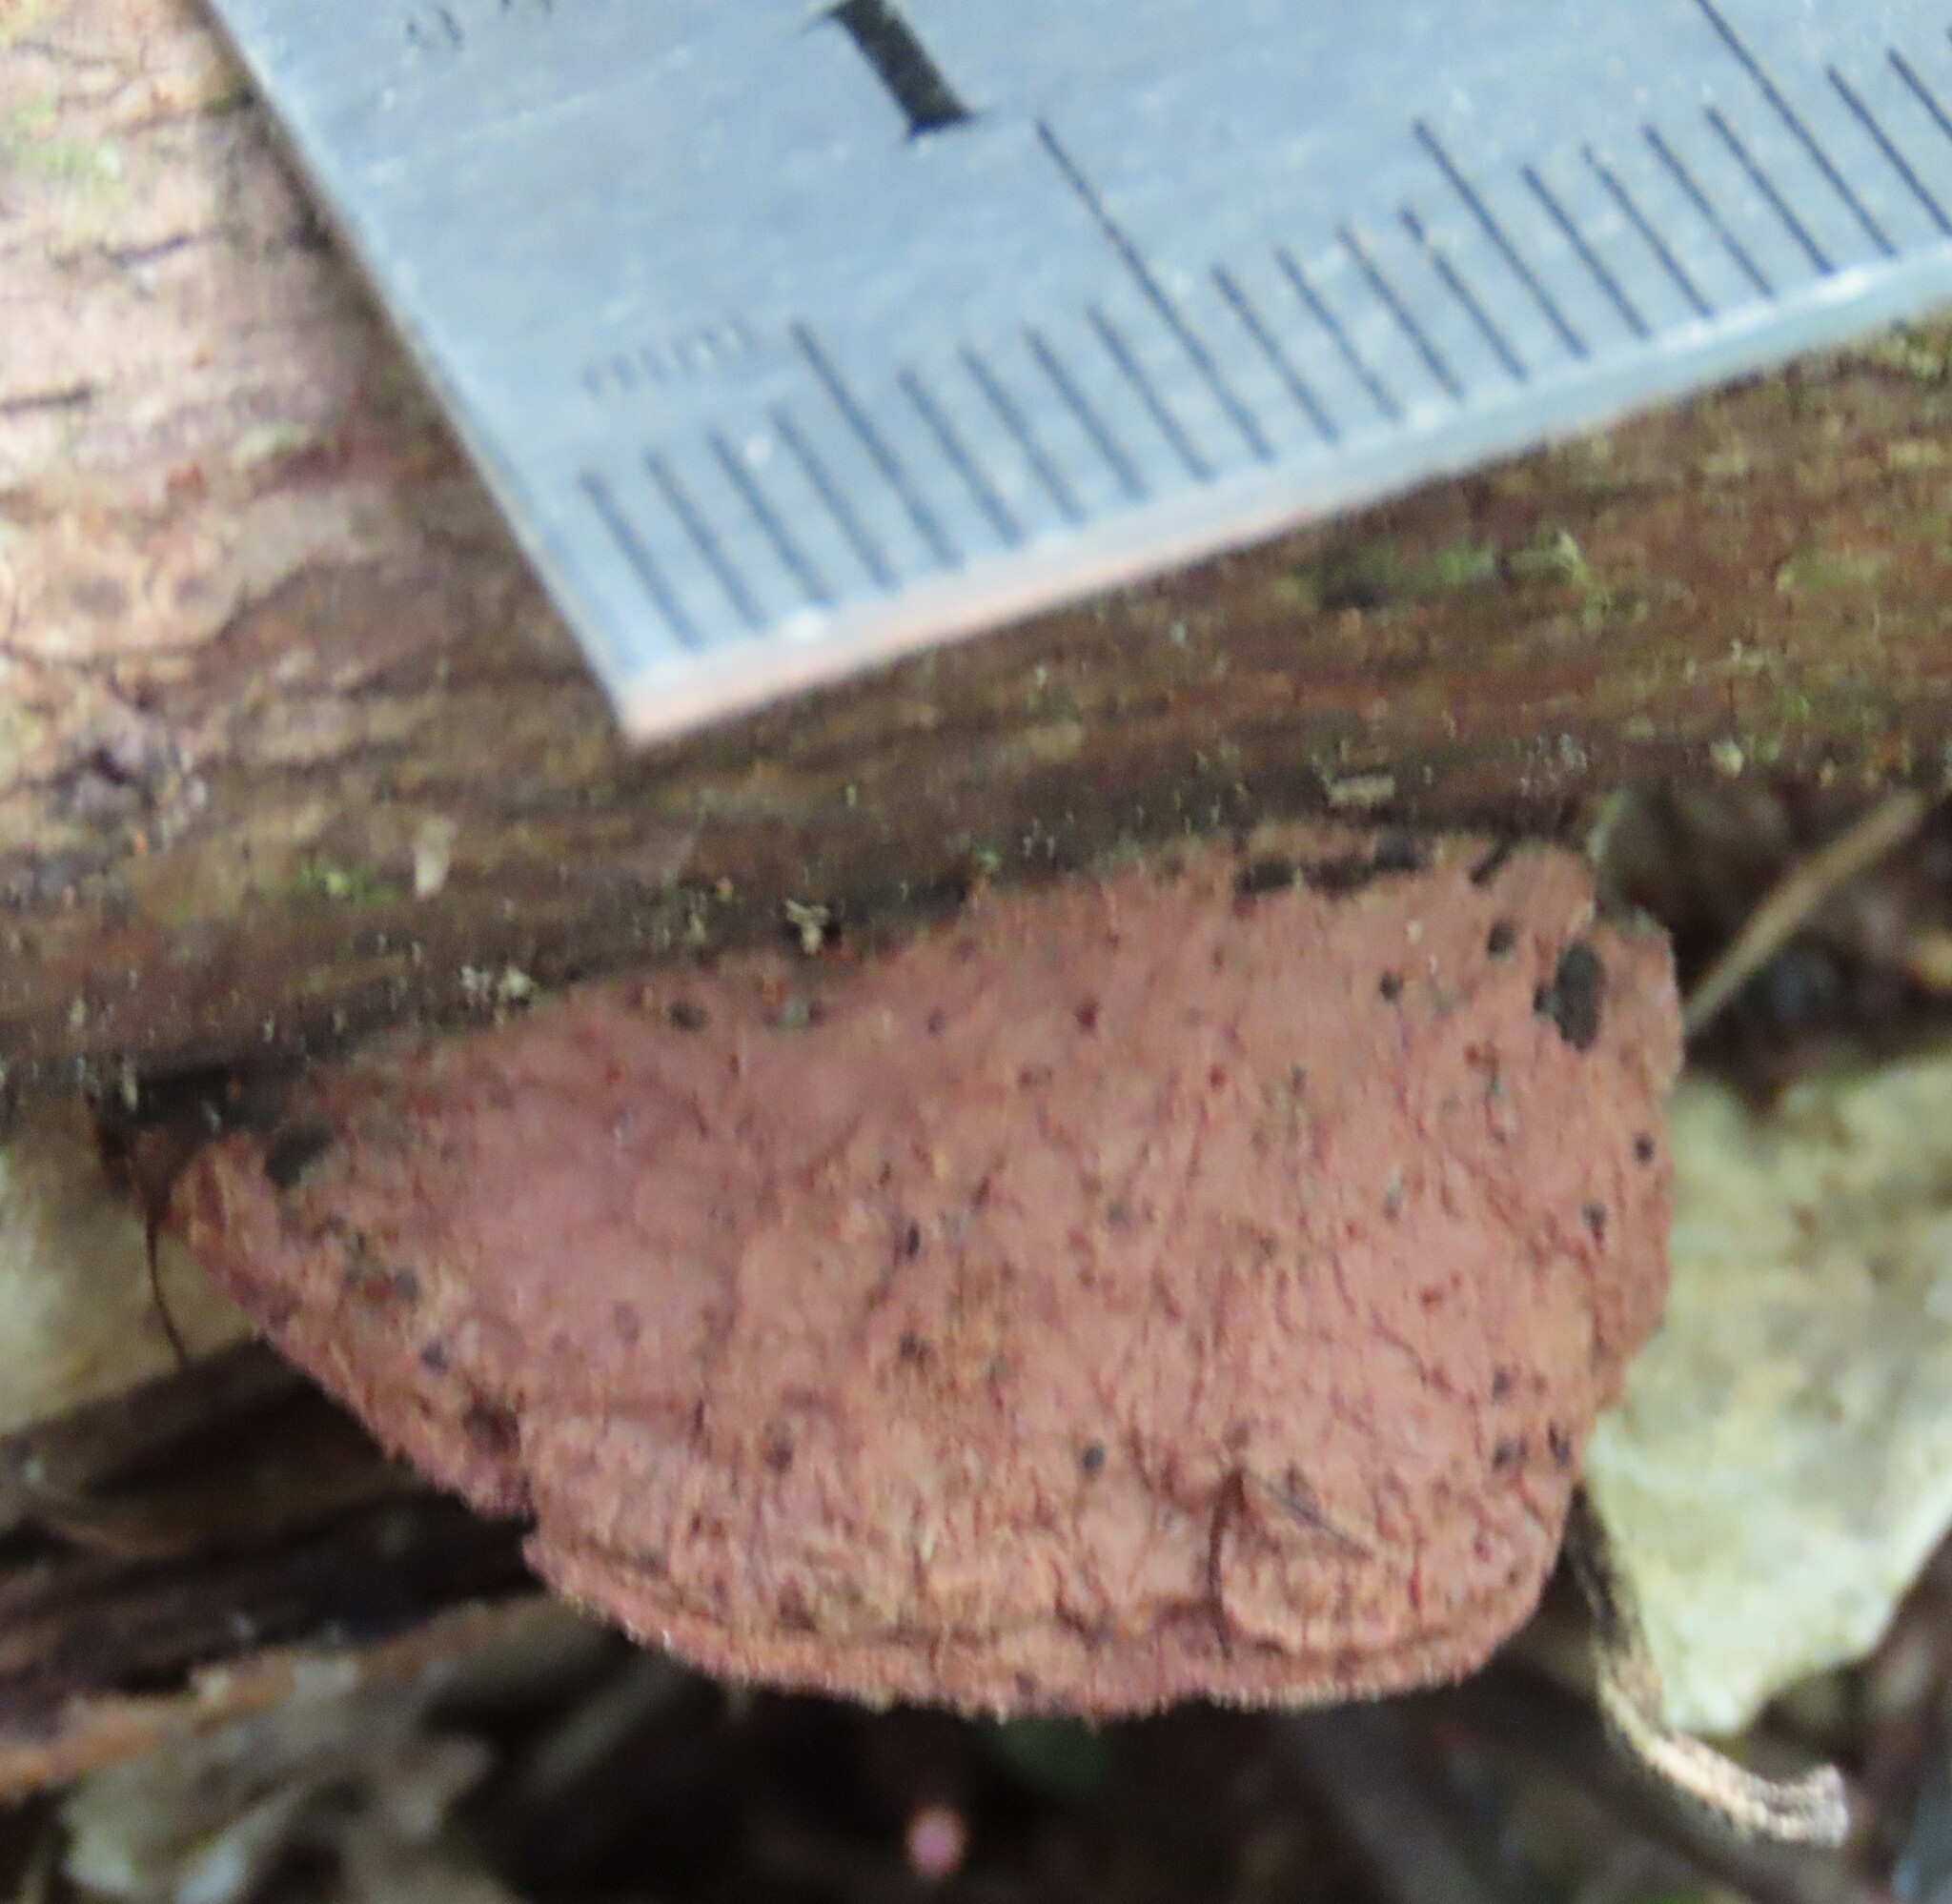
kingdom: Fungi
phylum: Basidiomycota
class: Agaricomycetes
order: Polyporales
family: Phanerochaetaceae
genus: Hapalopilus
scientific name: Hapalopilus rutilans
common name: Tender nesting polypore
